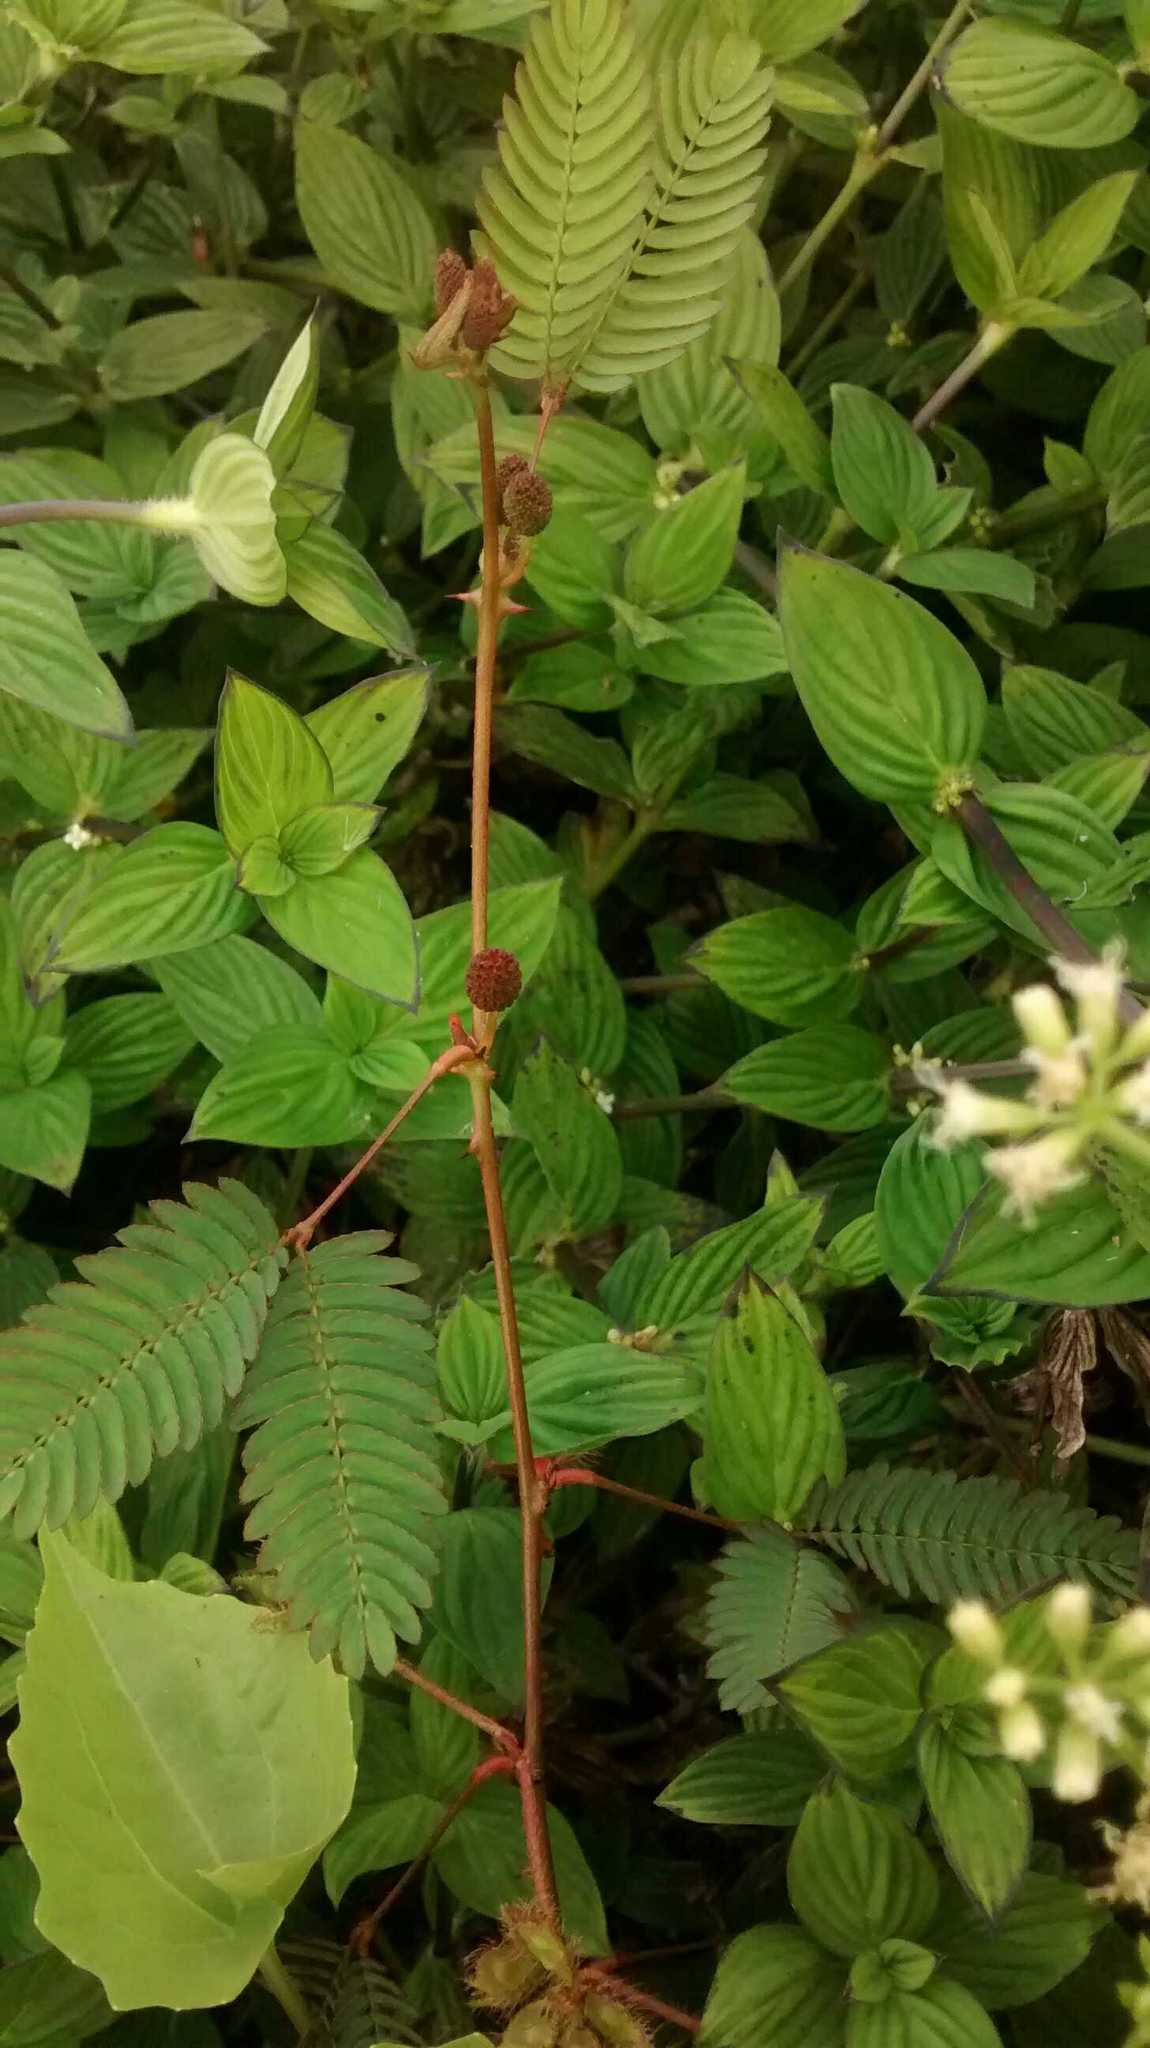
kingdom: Plantae
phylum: Tracheophyta
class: Magnoliopsida
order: Fabales
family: Fabaceae
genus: Mimosa
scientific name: Mimosa pudica
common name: Sensitive plant
